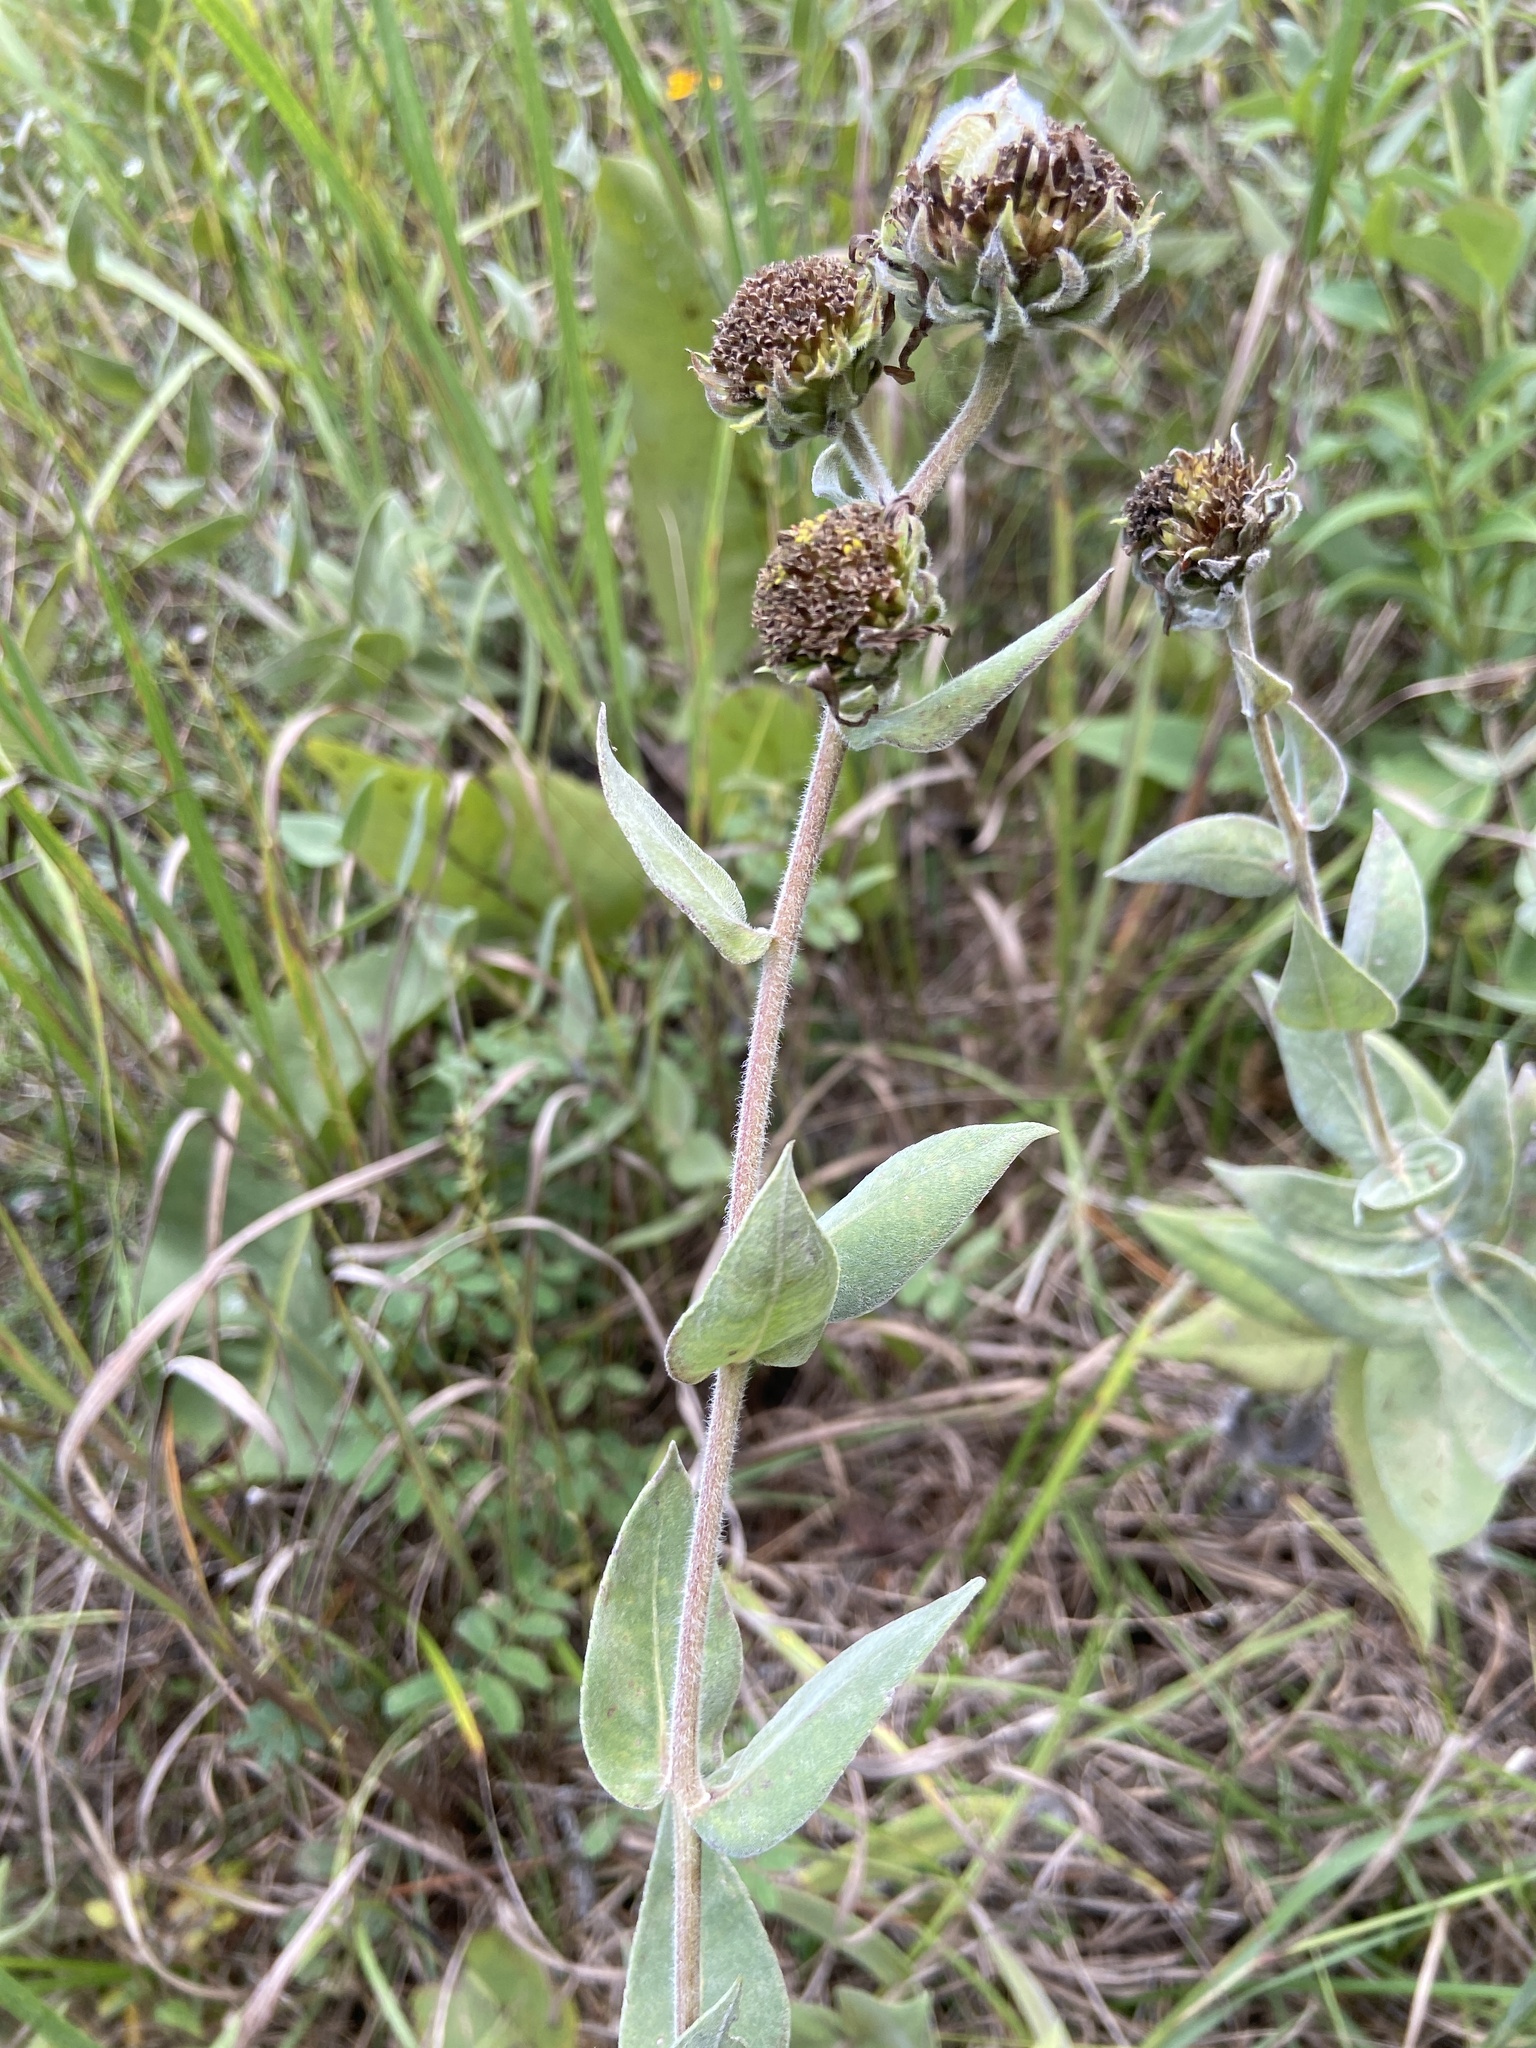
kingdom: Plantae
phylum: Tracheophyta
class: Magnoliopsida
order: Asterales
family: Asteraceae
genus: Helianthus
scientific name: Helianthus mollis
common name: Ashy sunflower
